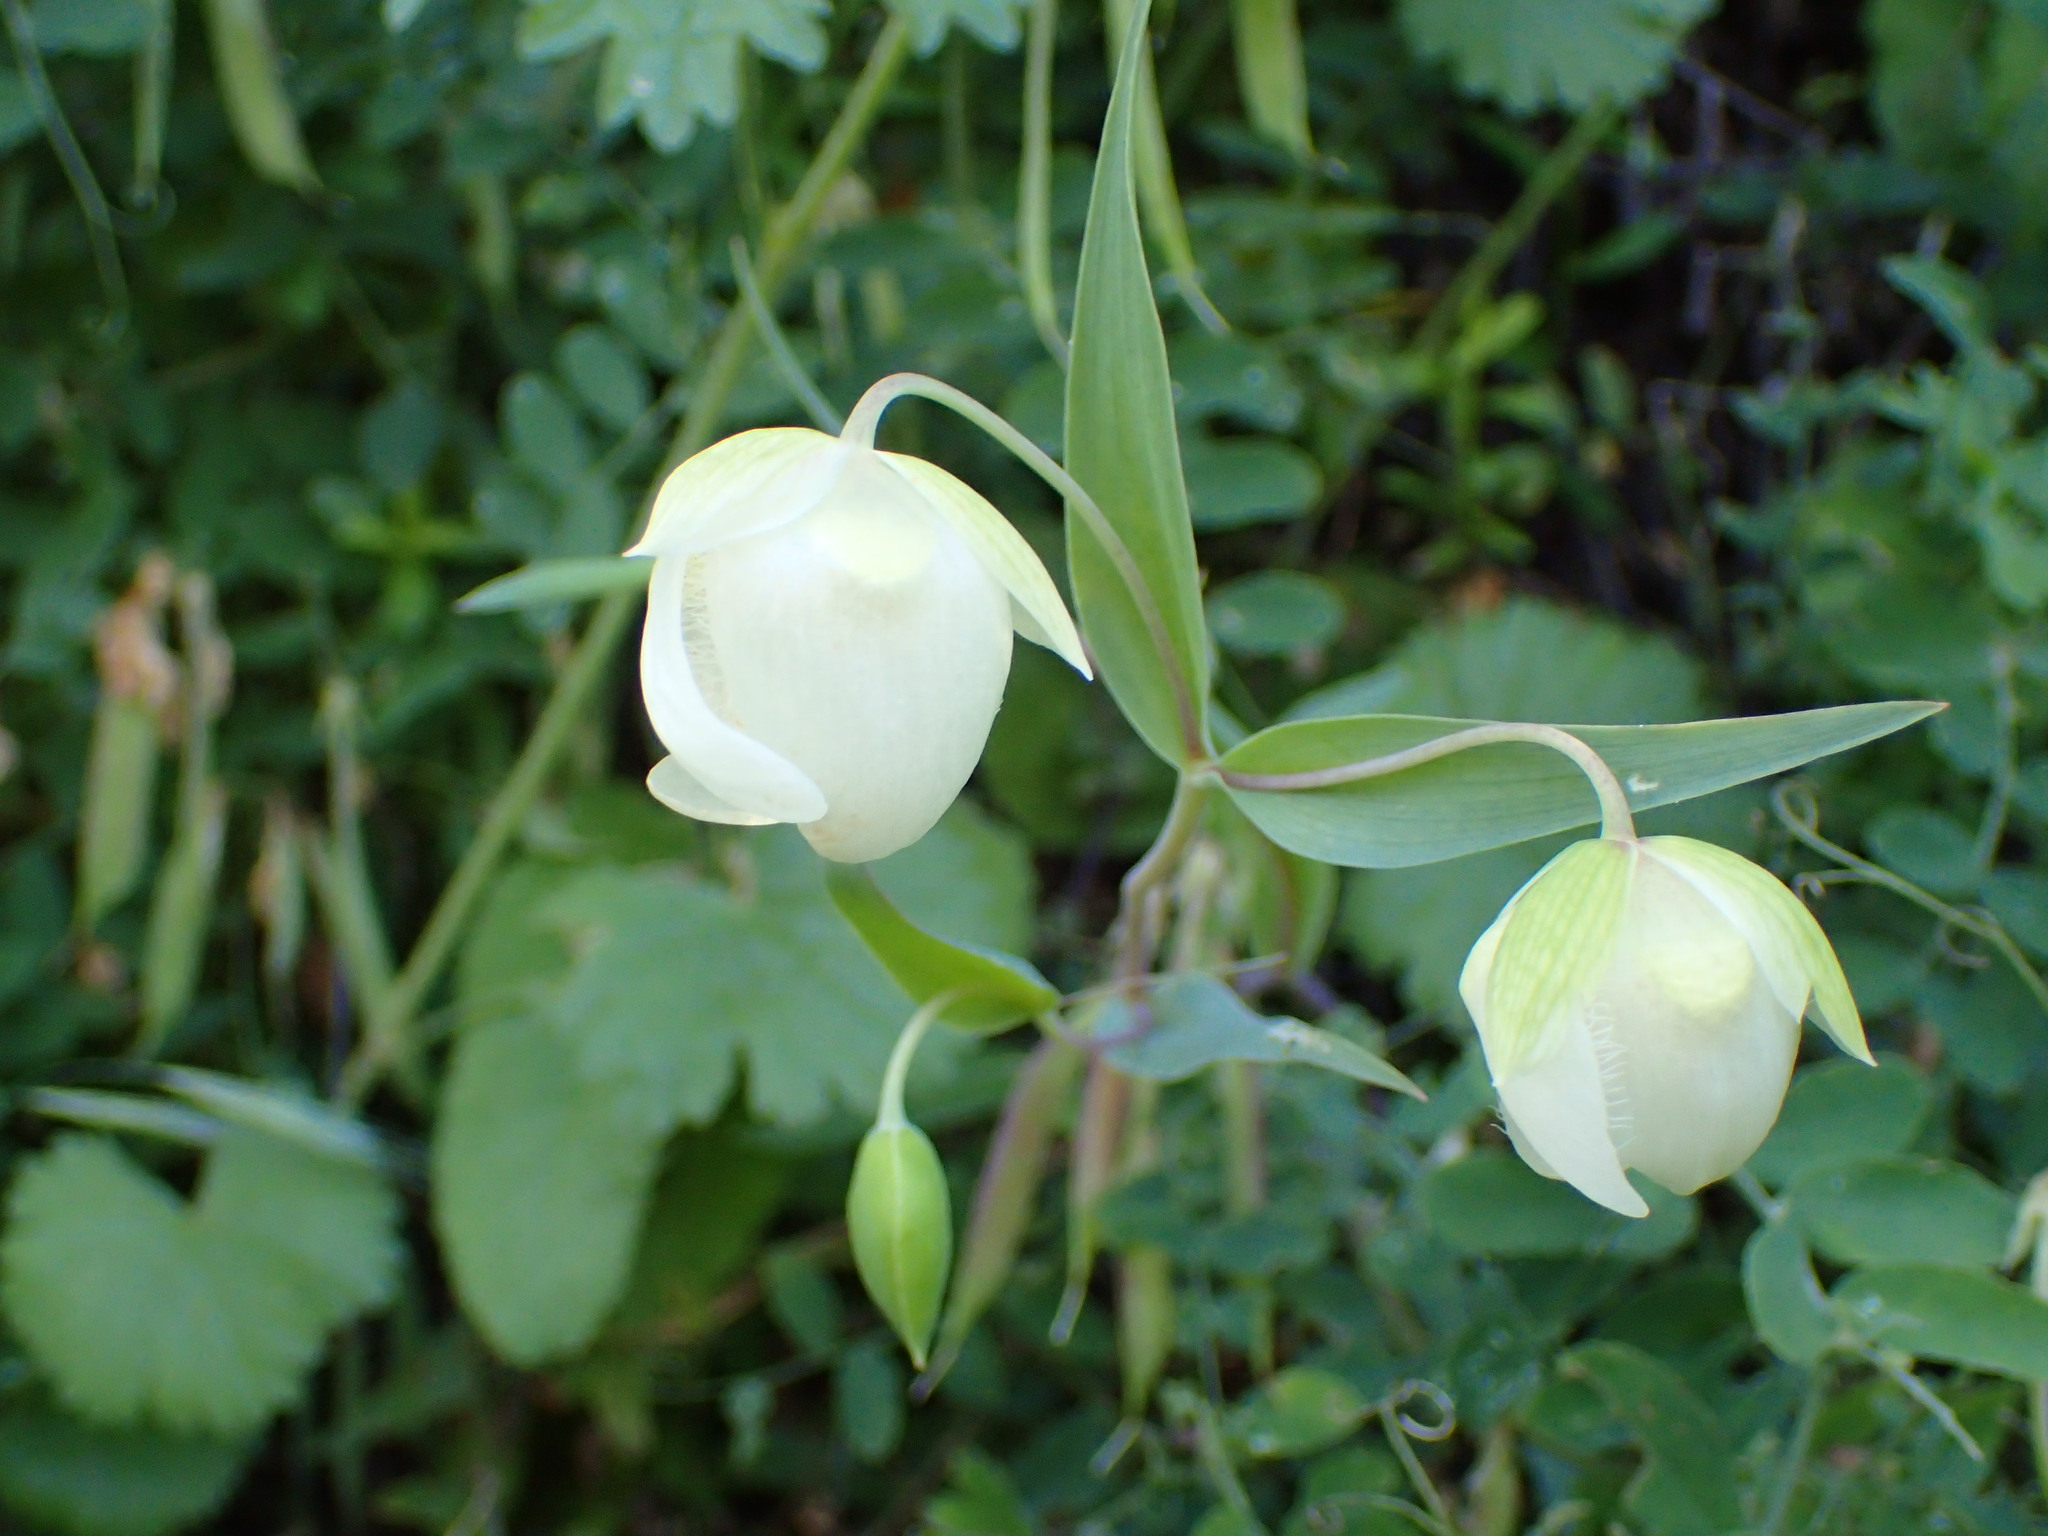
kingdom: Plantae
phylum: Tracheophyta
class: Liliopsida
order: Liliales
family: Liliaceae
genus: Calochortus
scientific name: Calochortus albus
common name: Fairy-lantern
